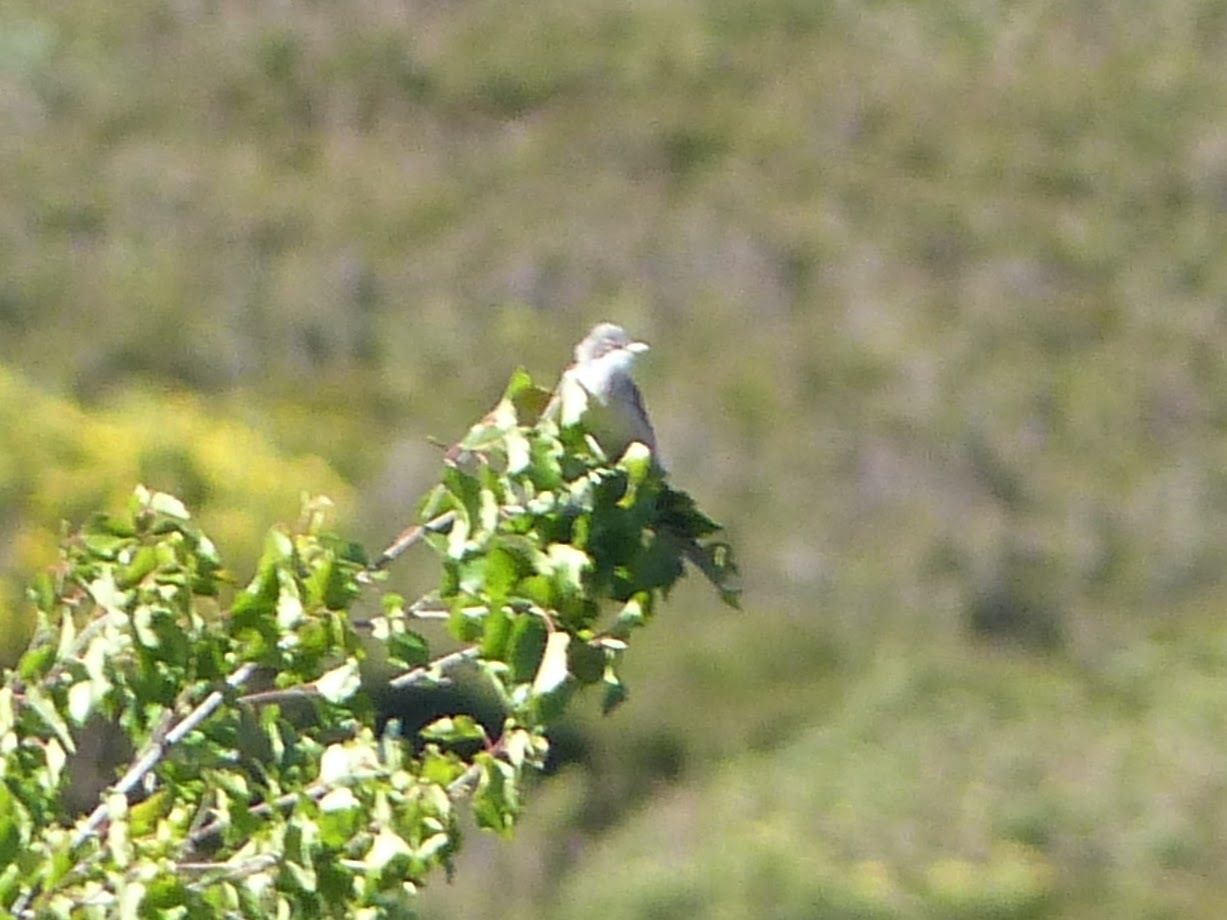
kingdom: Animalia
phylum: Chordata
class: Aves
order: Passeriformes
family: Sylviidae
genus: Sylvia
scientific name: Sylvia communis
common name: Common whitethroat
